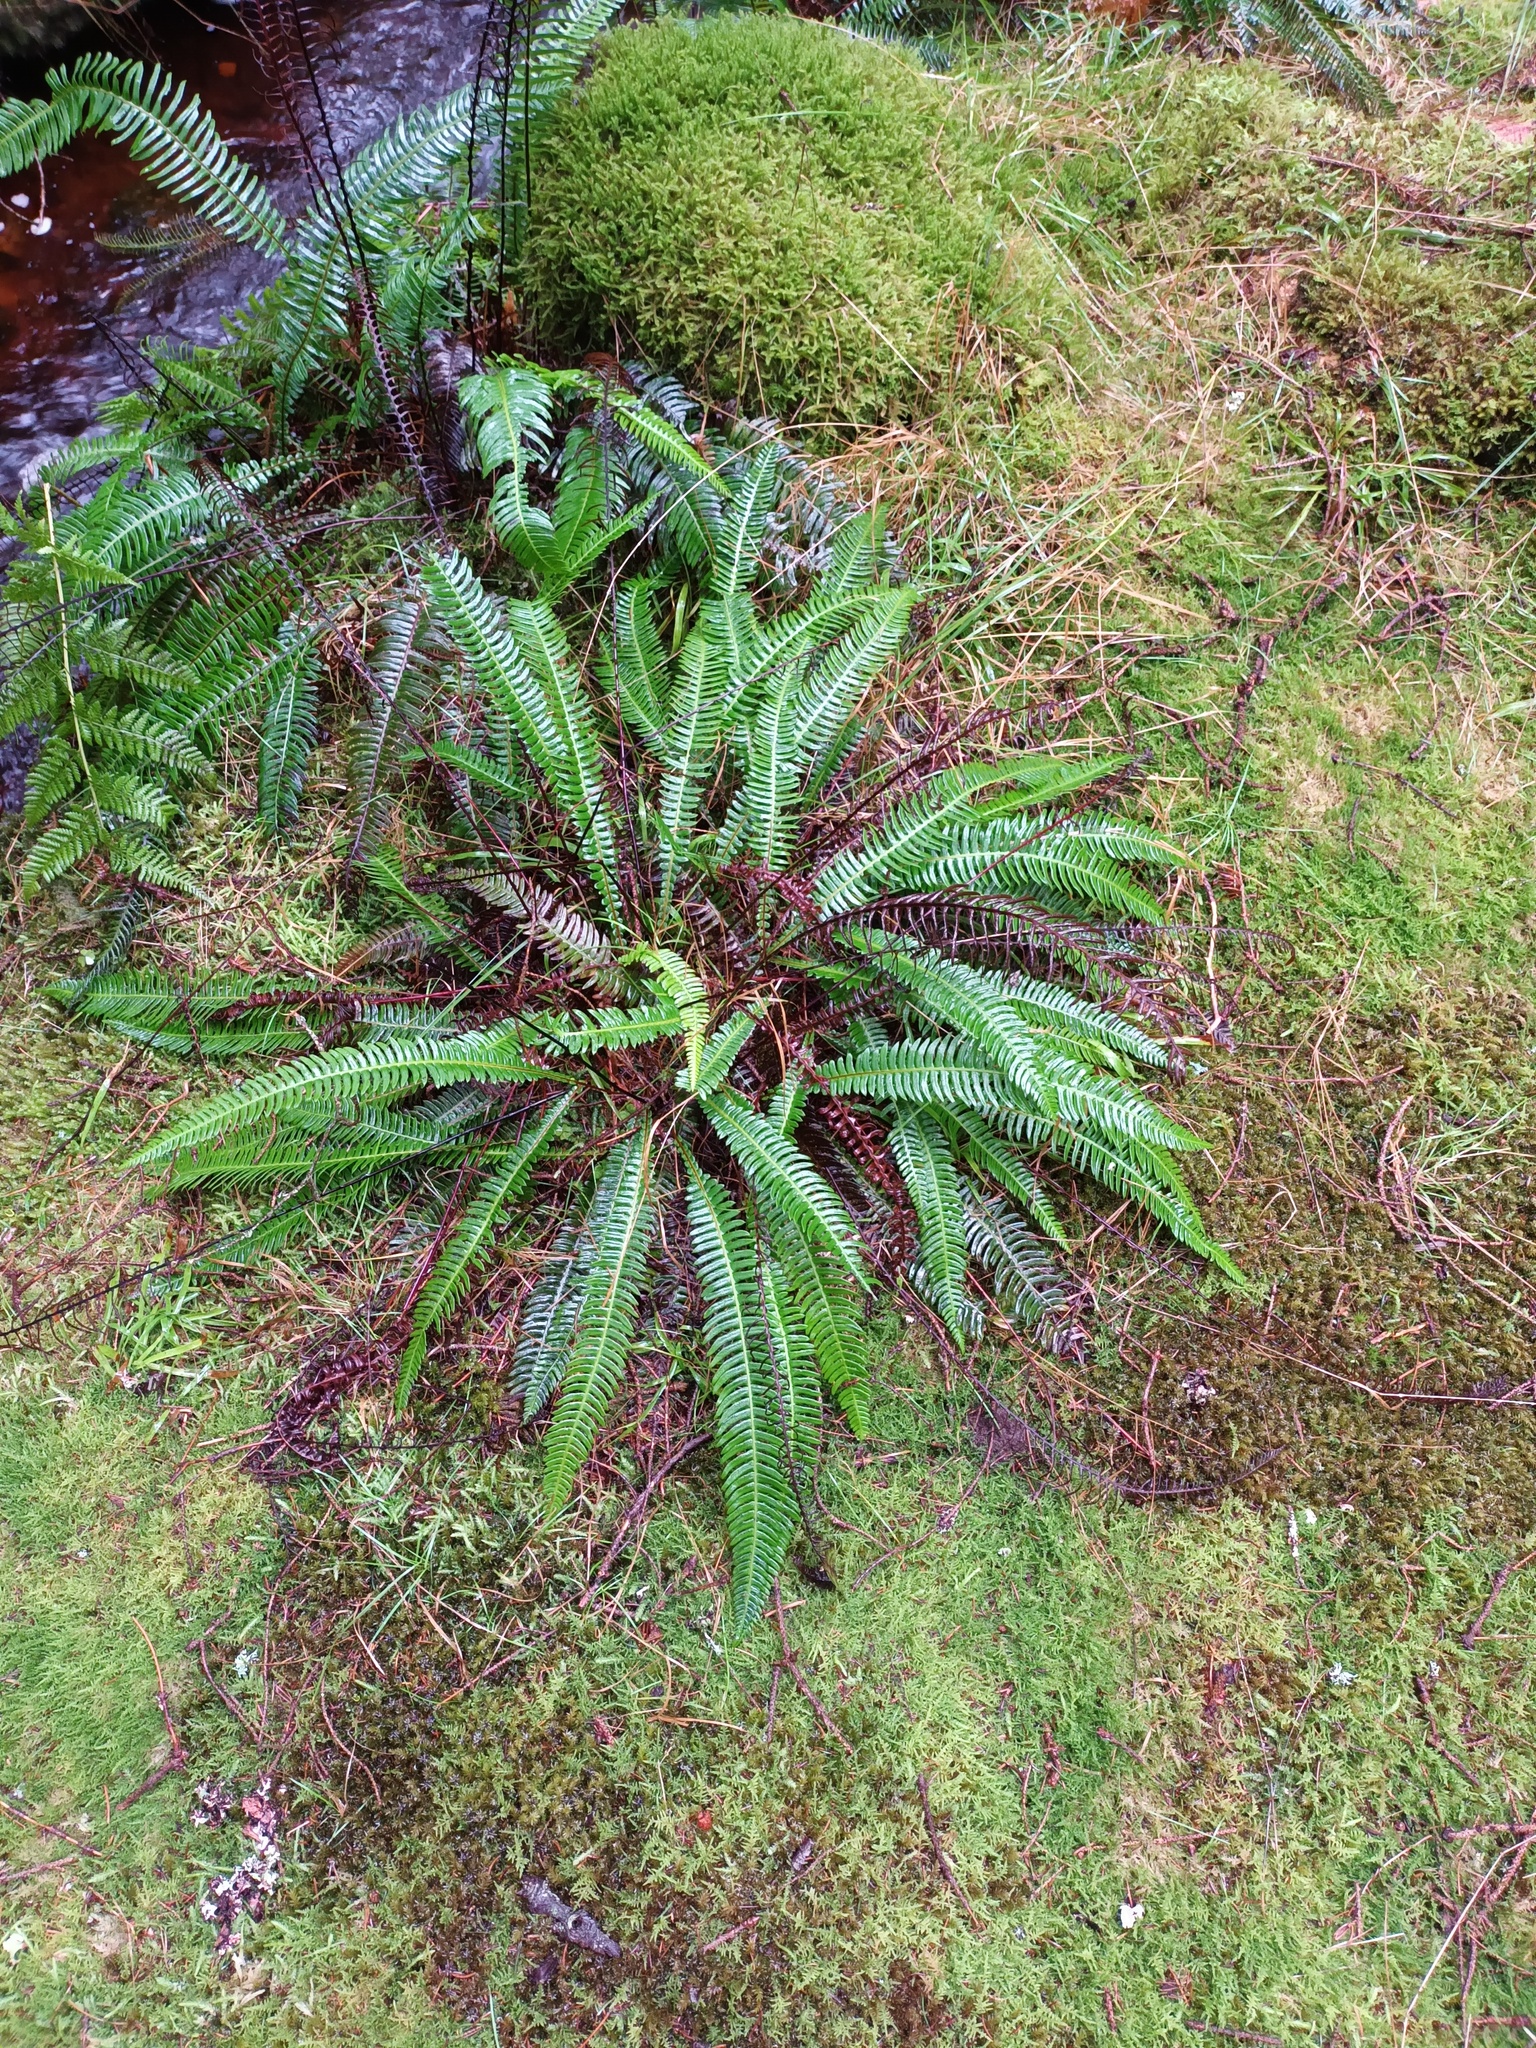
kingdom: Plantae
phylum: Tracheophyta
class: Polypodiopsida
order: Polypodiales
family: Blechnaceae
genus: Struthiopteris
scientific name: Struthiopteris spicant
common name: Deer fern
